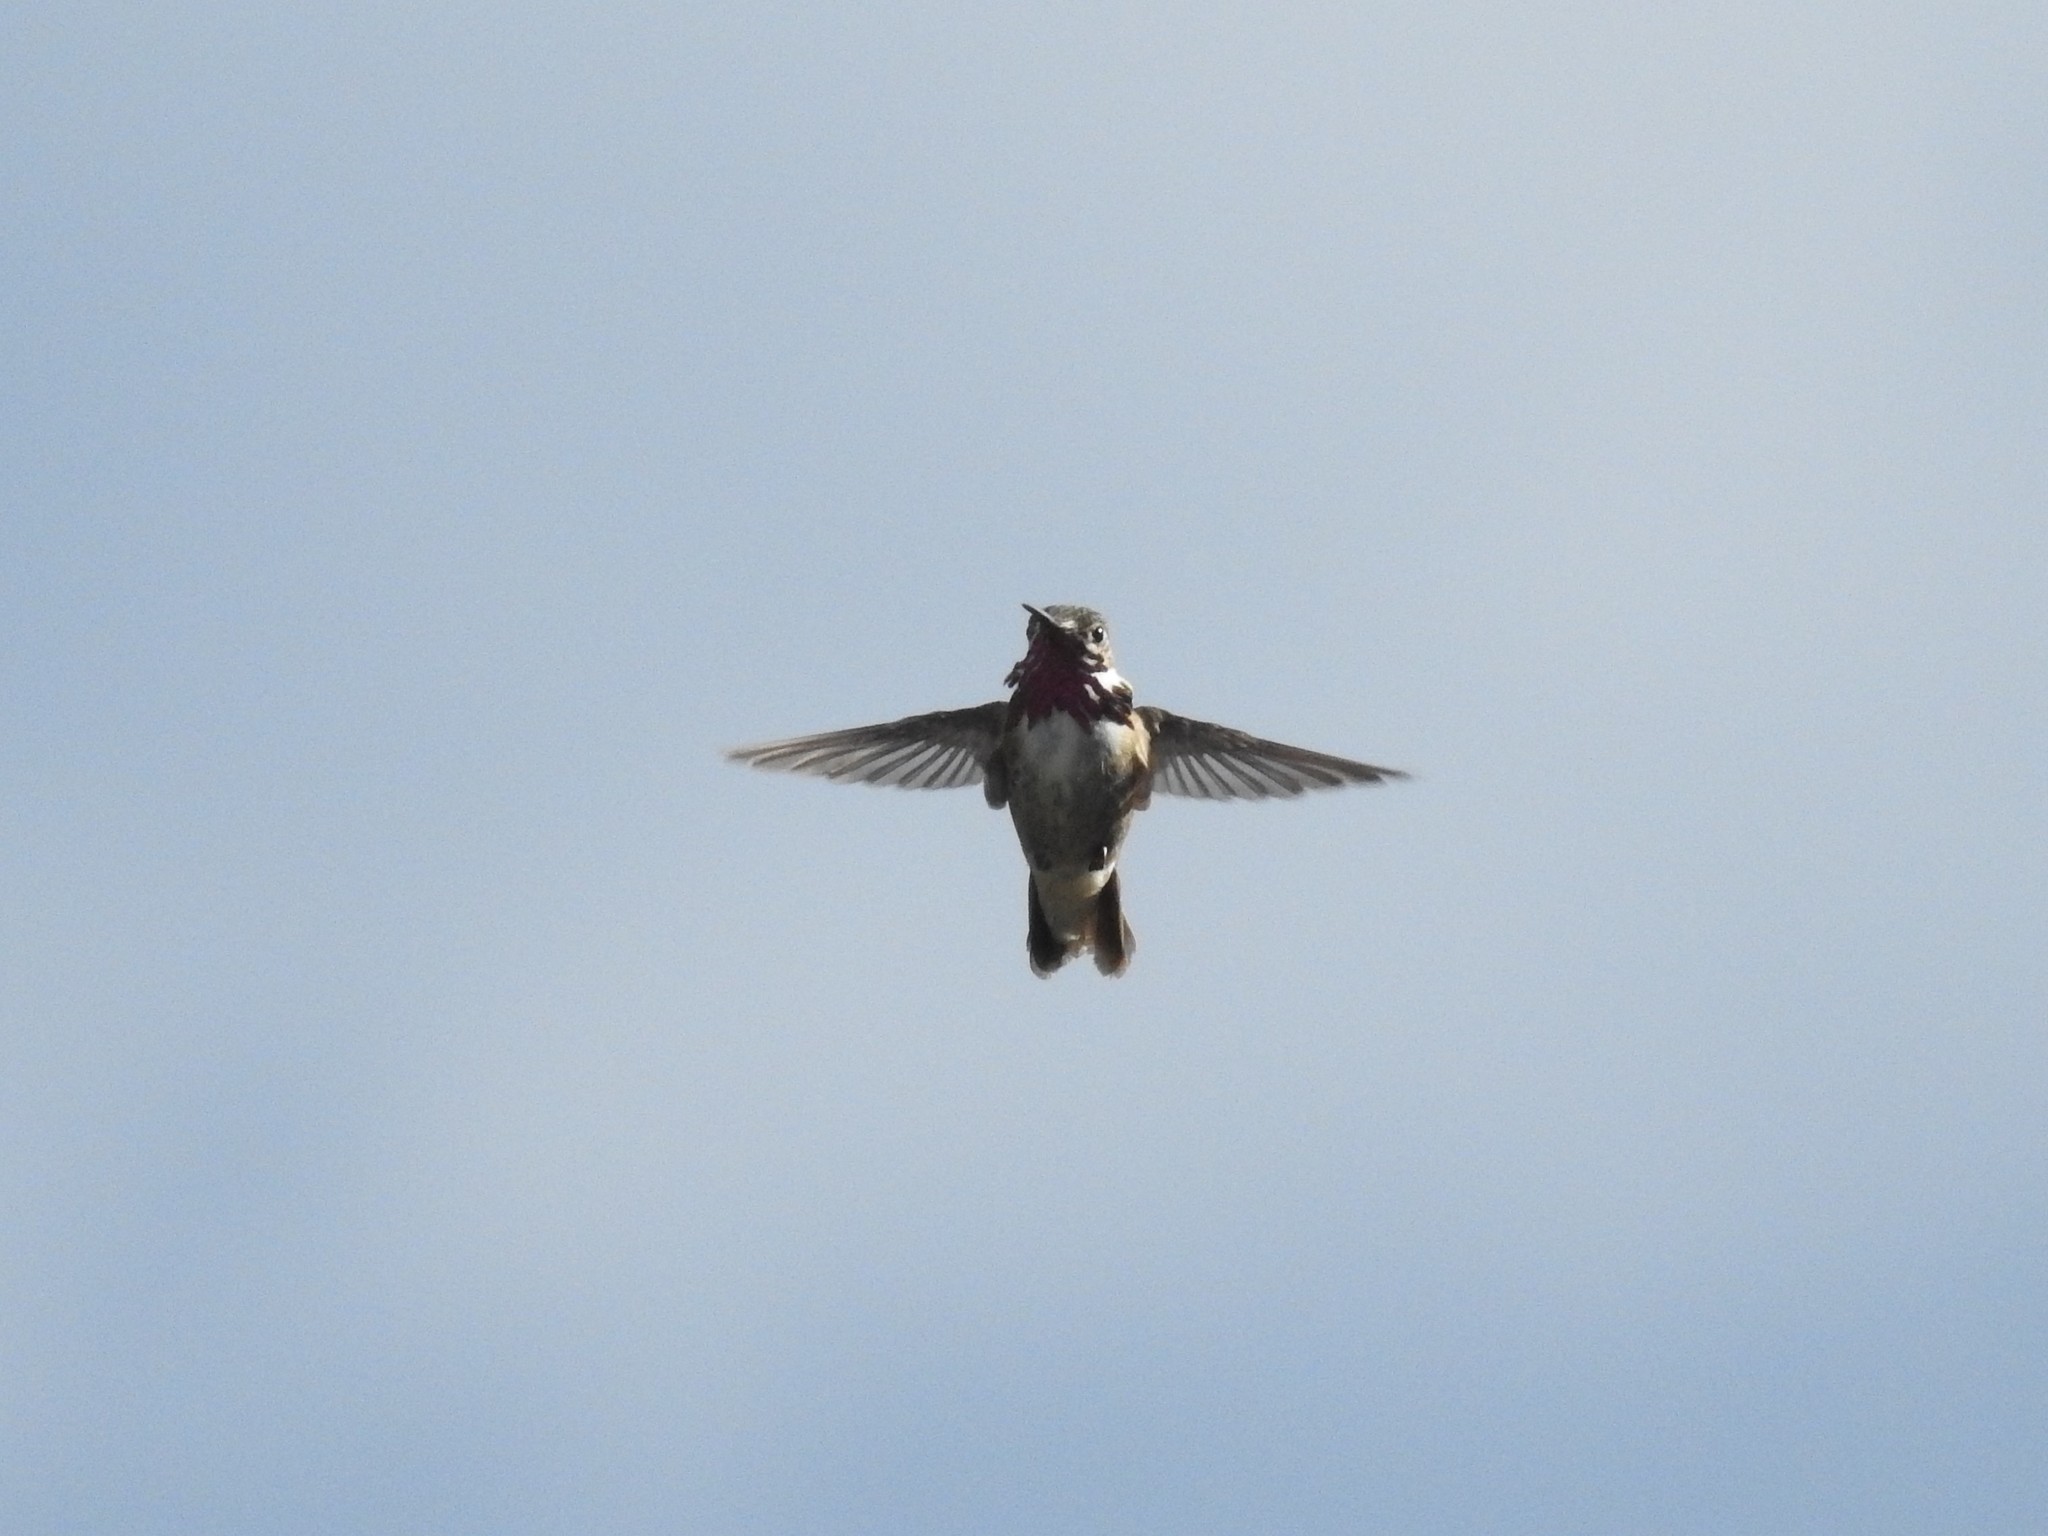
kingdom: Animalia
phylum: Chordata
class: Aves
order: Apodiformes
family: Trochilidae
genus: Selasphorus
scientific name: Selasphorus calliope
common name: Calliope hummingbird
